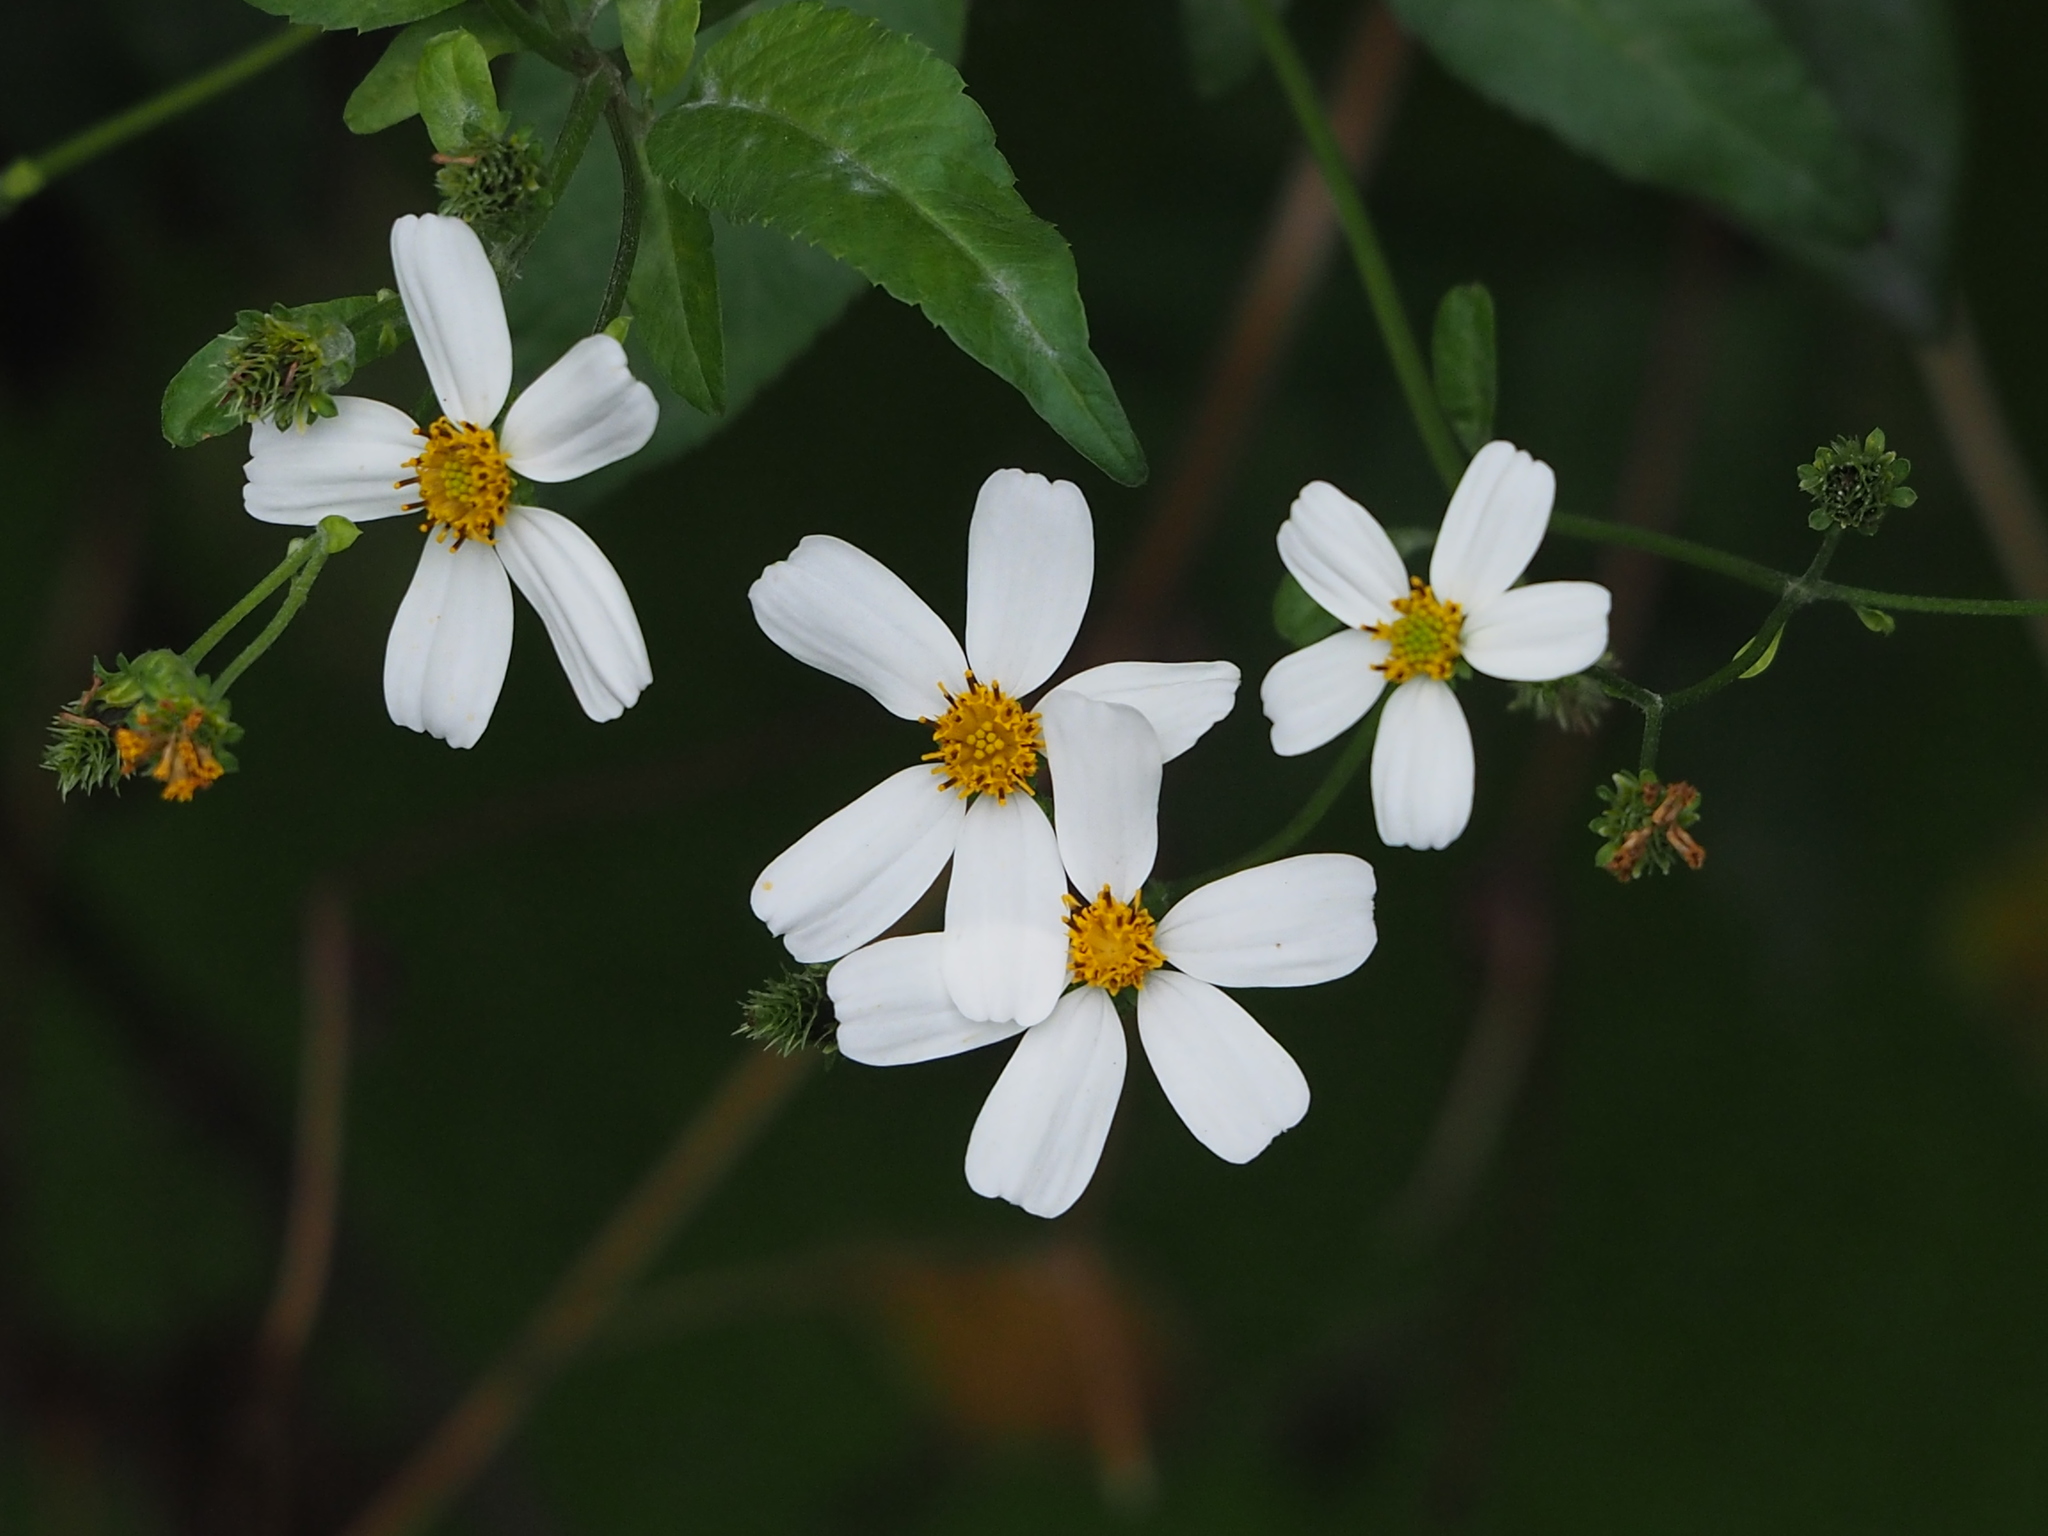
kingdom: Plantae
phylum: Tracheophyta
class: Magnoliopsida
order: Asterales
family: Asteraceae
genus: Bidens
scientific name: Bidens alba
